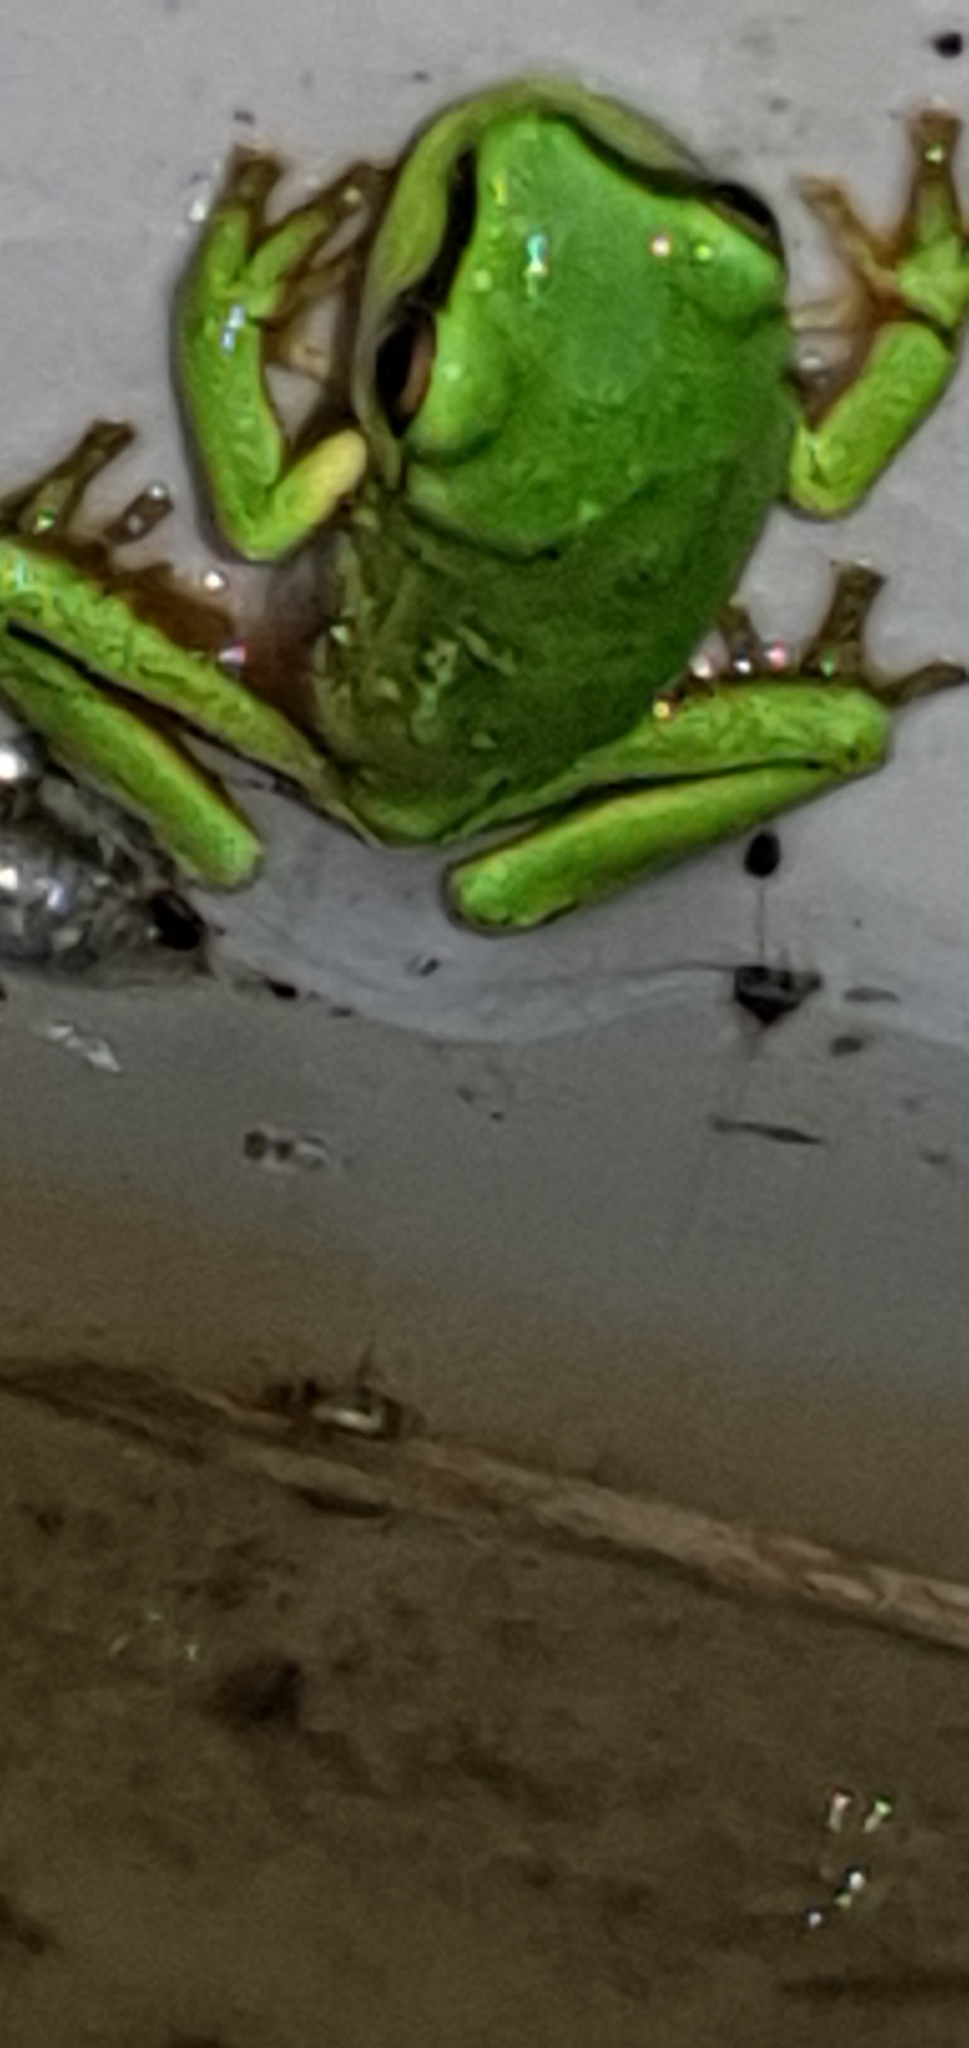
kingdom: Animalia
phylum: Chordata
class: Amphibia
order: Anura
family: Pelodryadidae
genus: Ranoidea
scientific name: Ranoidea caerulea
